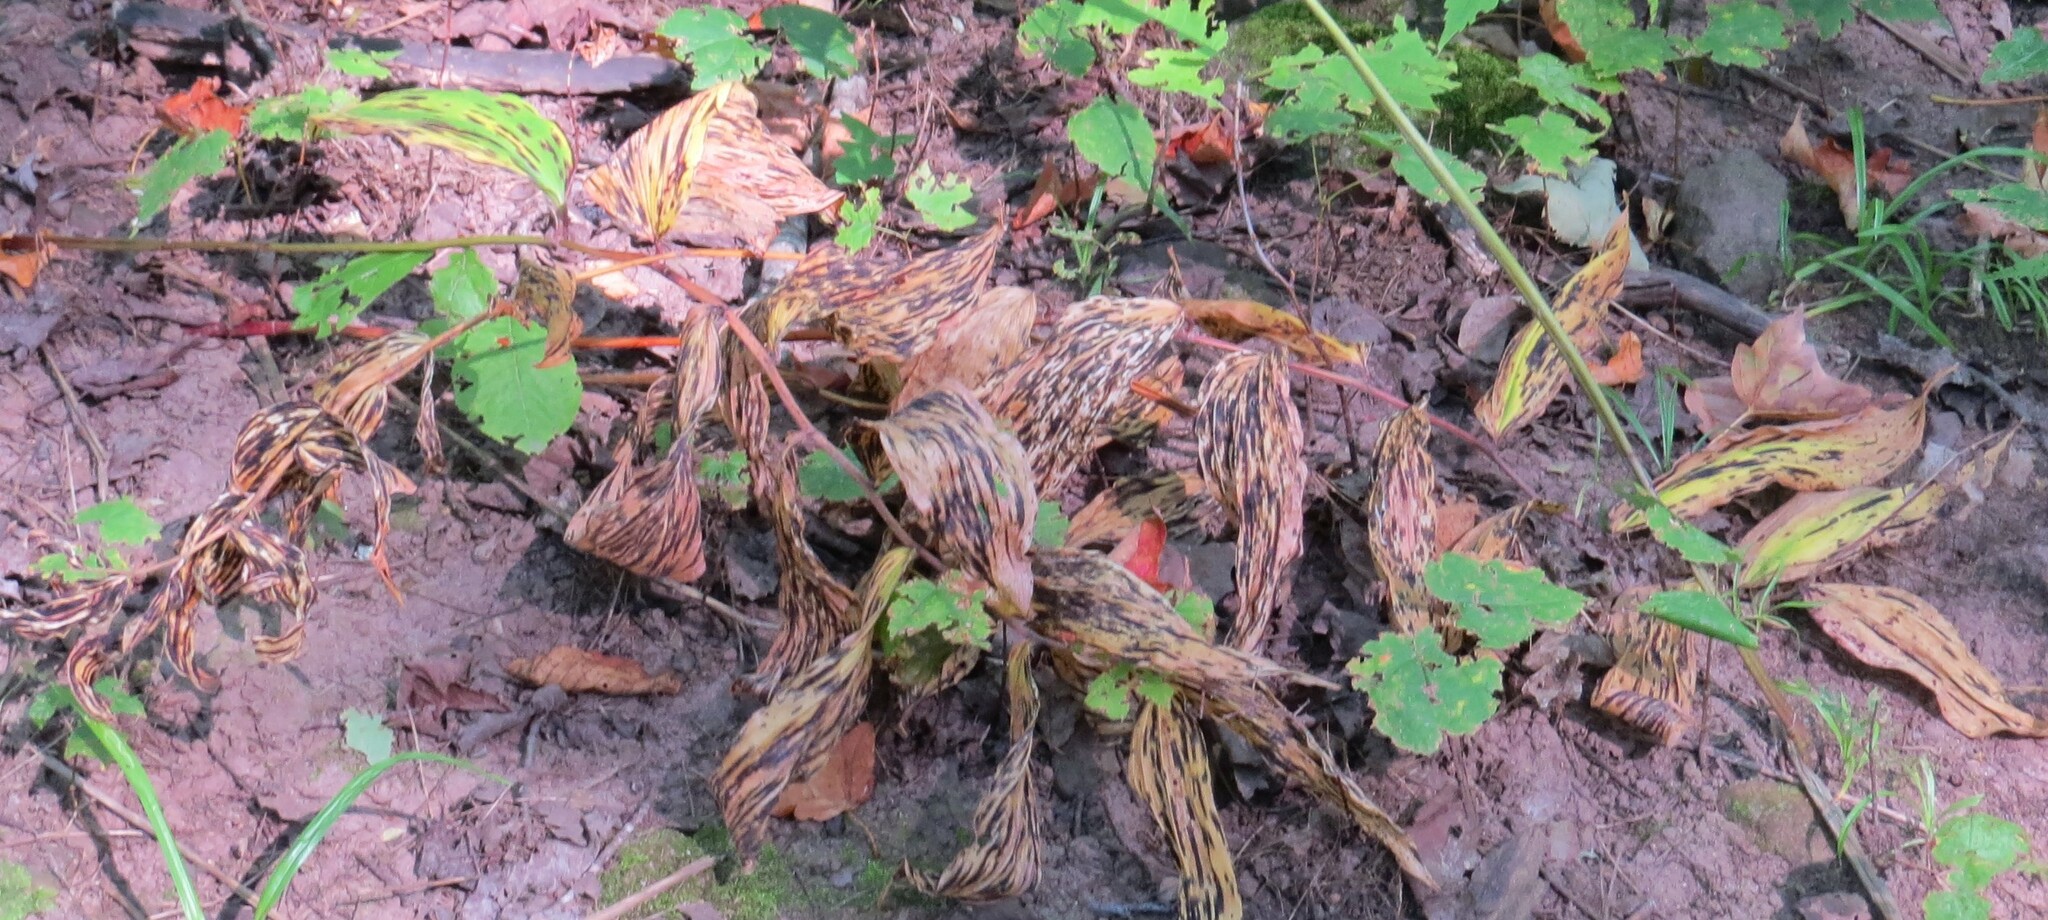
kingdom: Plantae
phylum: Tracheophyta
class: Liliopsida
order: Asparagales
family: Asparagaceae
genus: Maianthemum
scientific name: Maianthemum racemosum
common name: False spikenard
